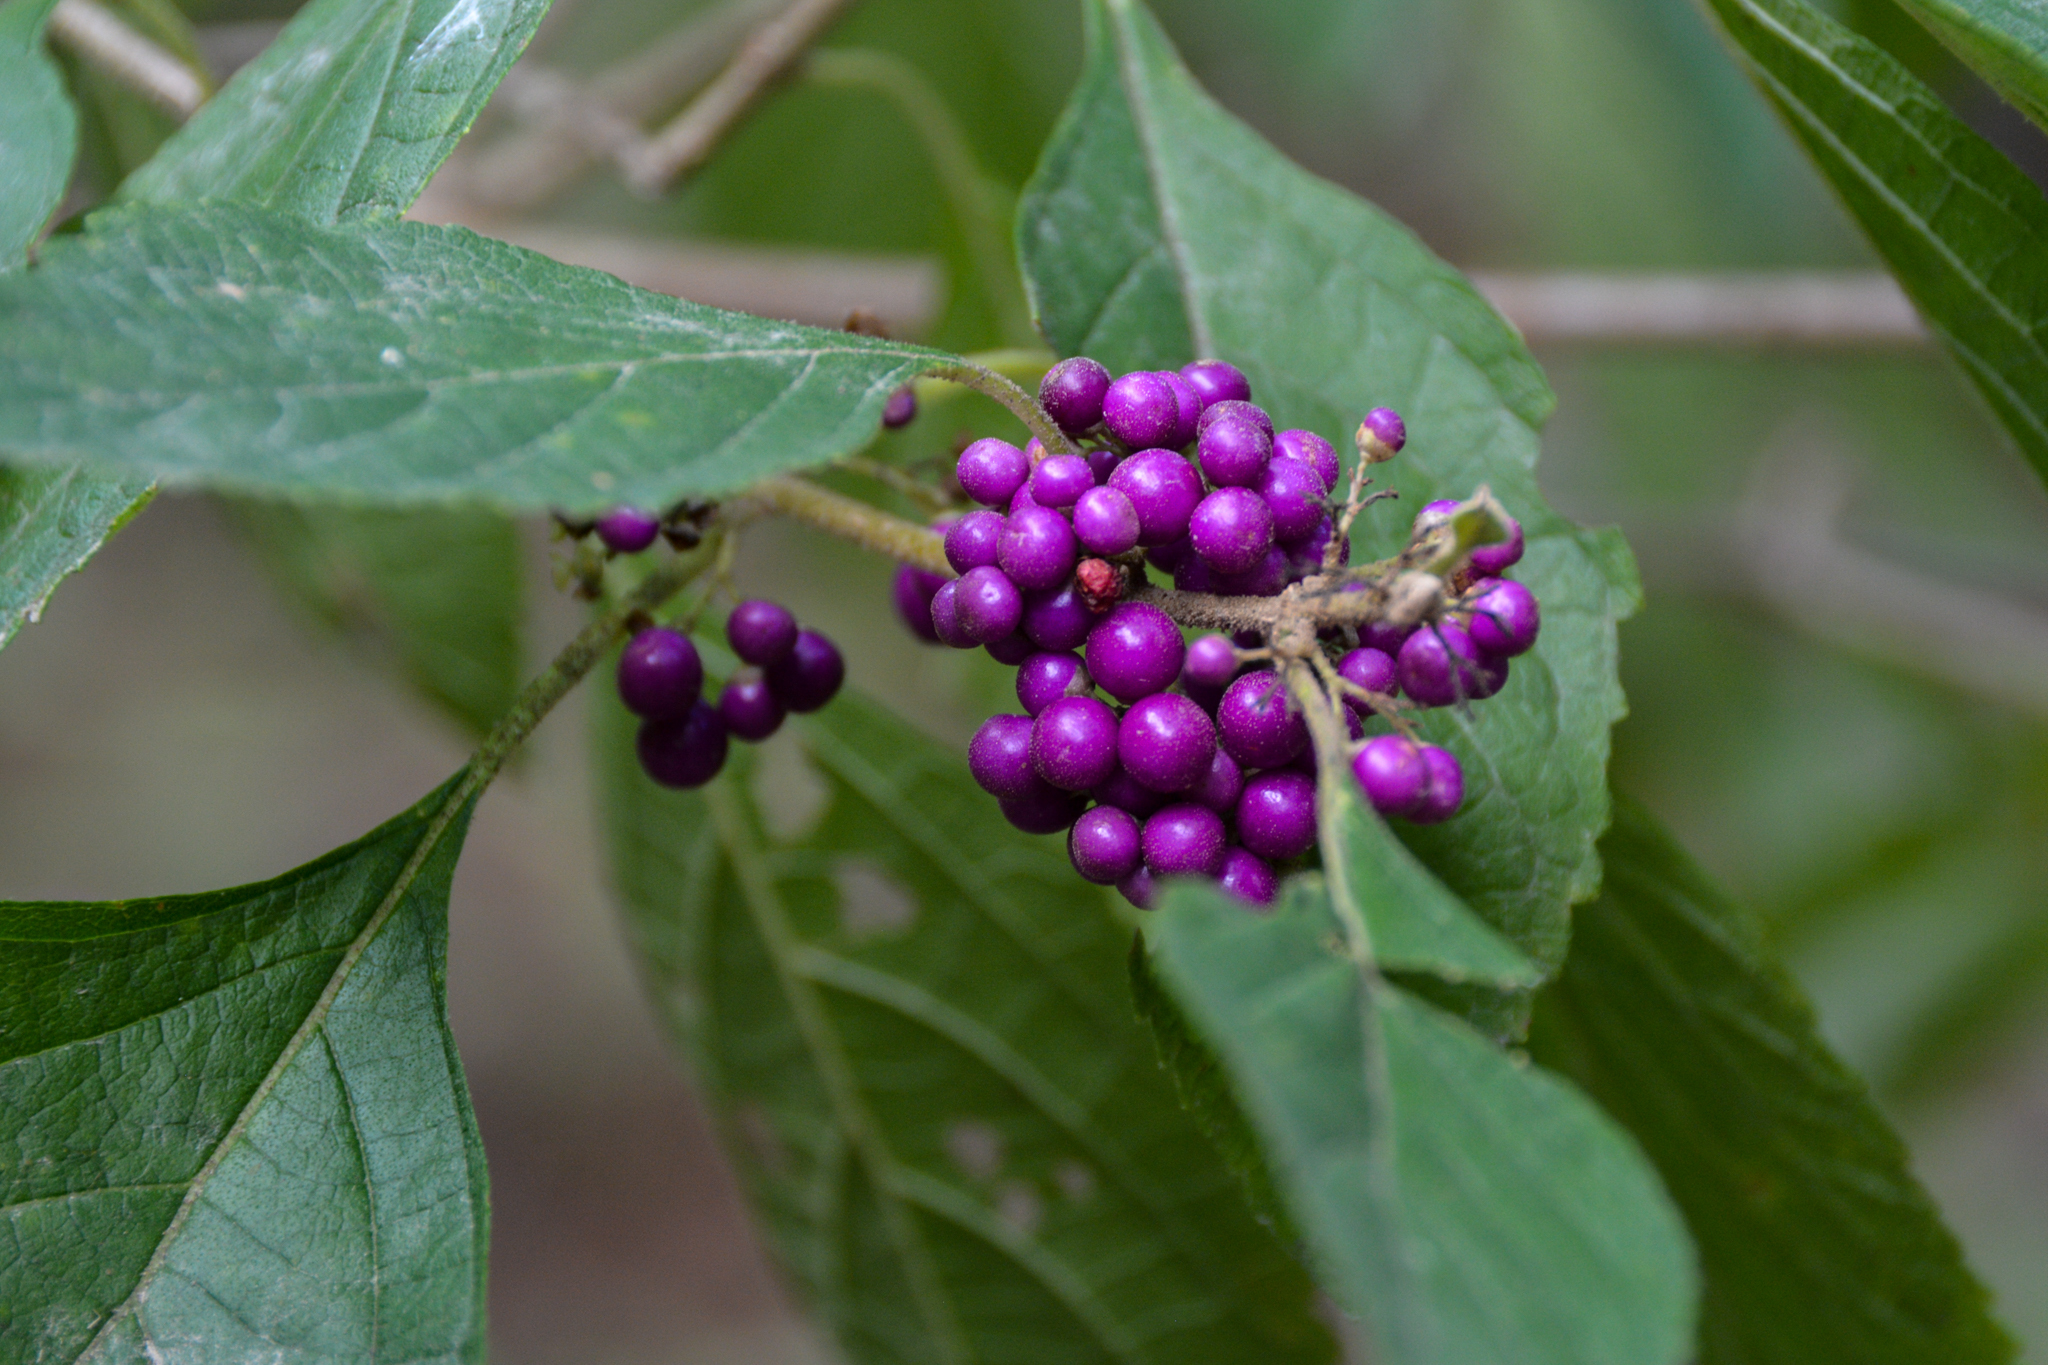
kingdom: Plantae
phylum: Tracheophyta
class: Magnoliopsida
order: Lamiales
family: Lamiaceae
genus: Callicarpa
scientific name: Callicarpa americana
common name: American beautyberry
